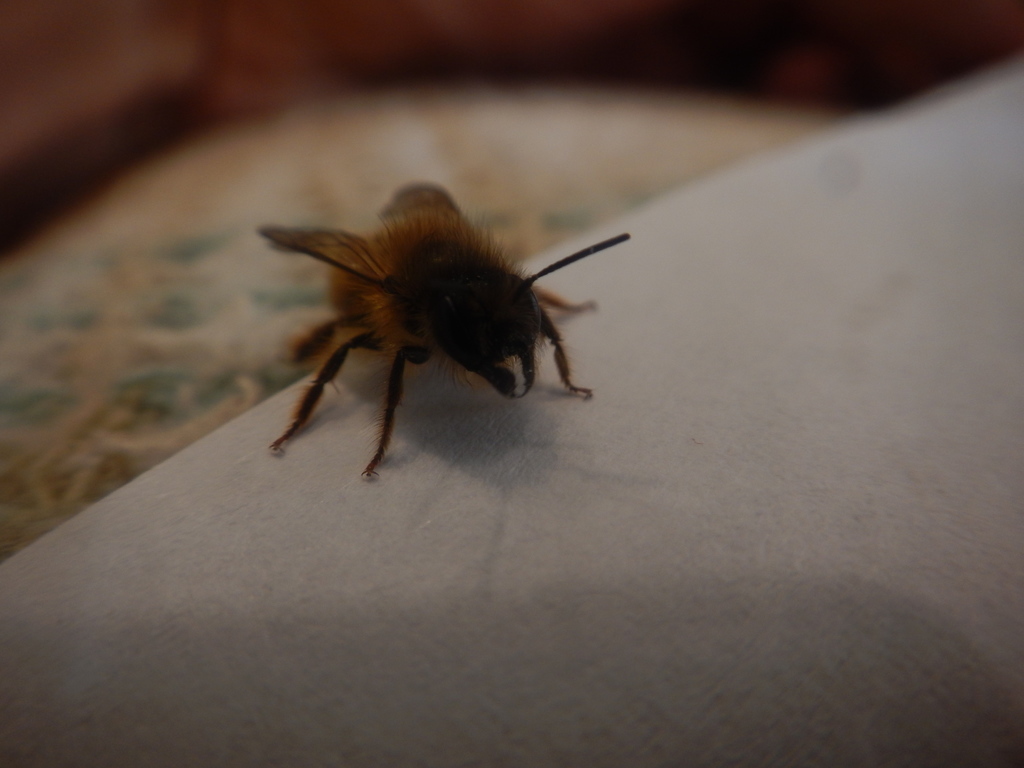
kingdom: Animalia
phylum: Arthropoda
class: Insecta
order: Hymenoptera
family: Megachilidae
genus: Osmia
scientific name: Osmia taurus
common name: Taurus mason bee
